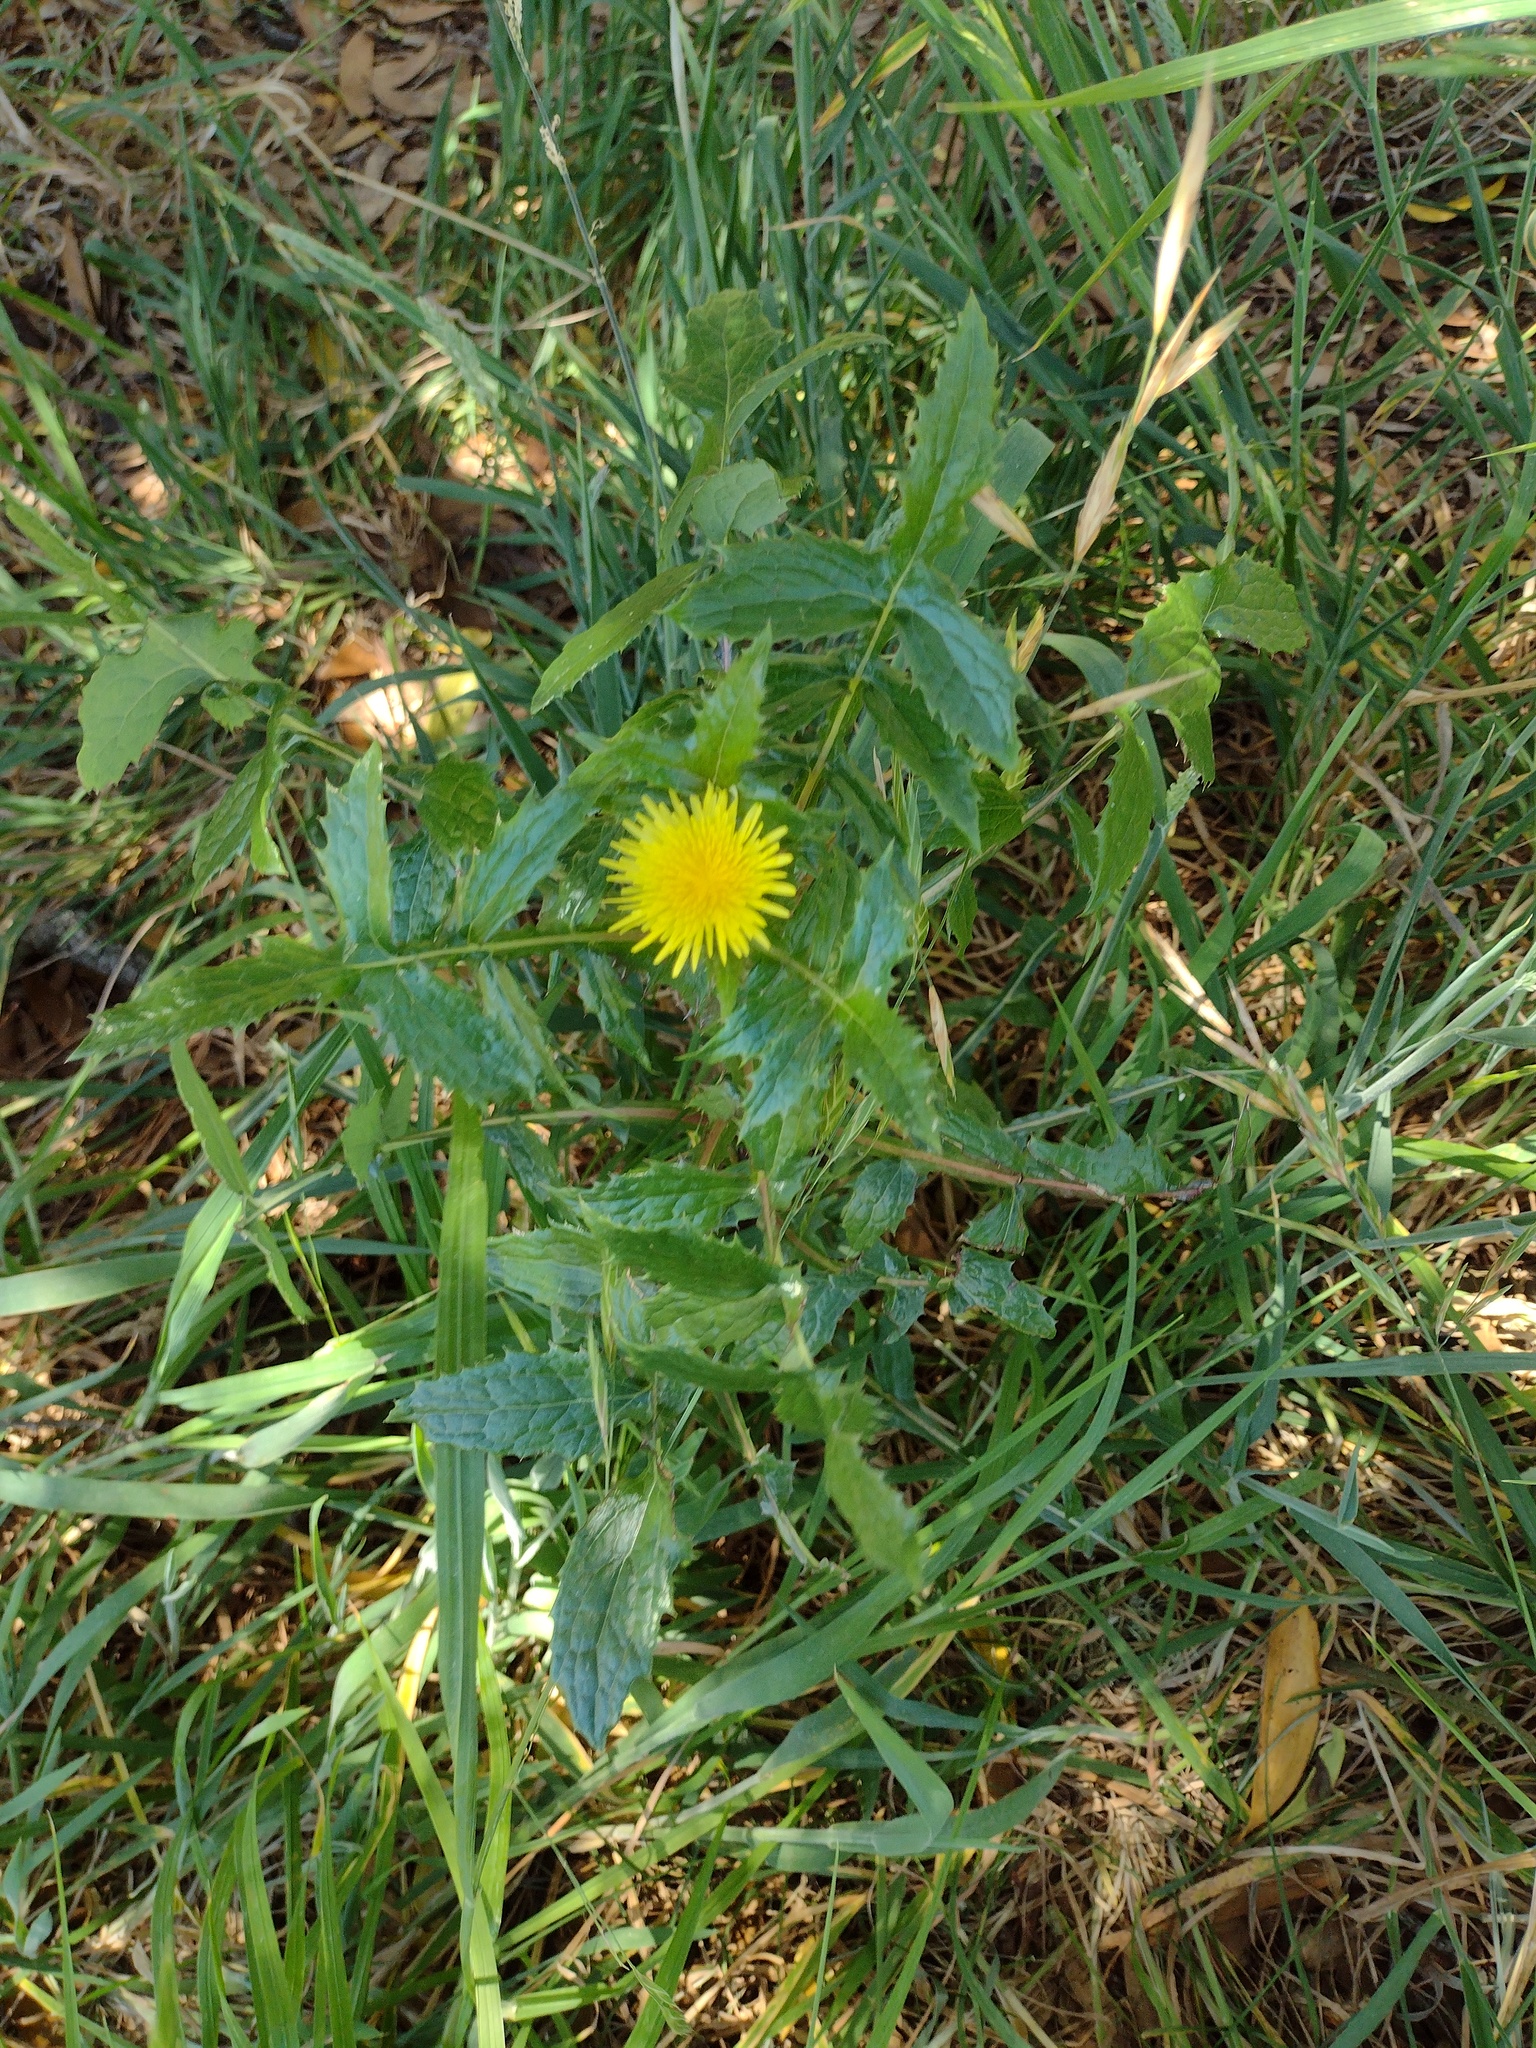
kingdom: Plantae
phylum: Tracheophyta
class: Magnoliopsida
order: Asterales
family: Asteraceae
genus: Sonchus
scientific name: Sonchus oleraceus
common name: Common sowthistle
